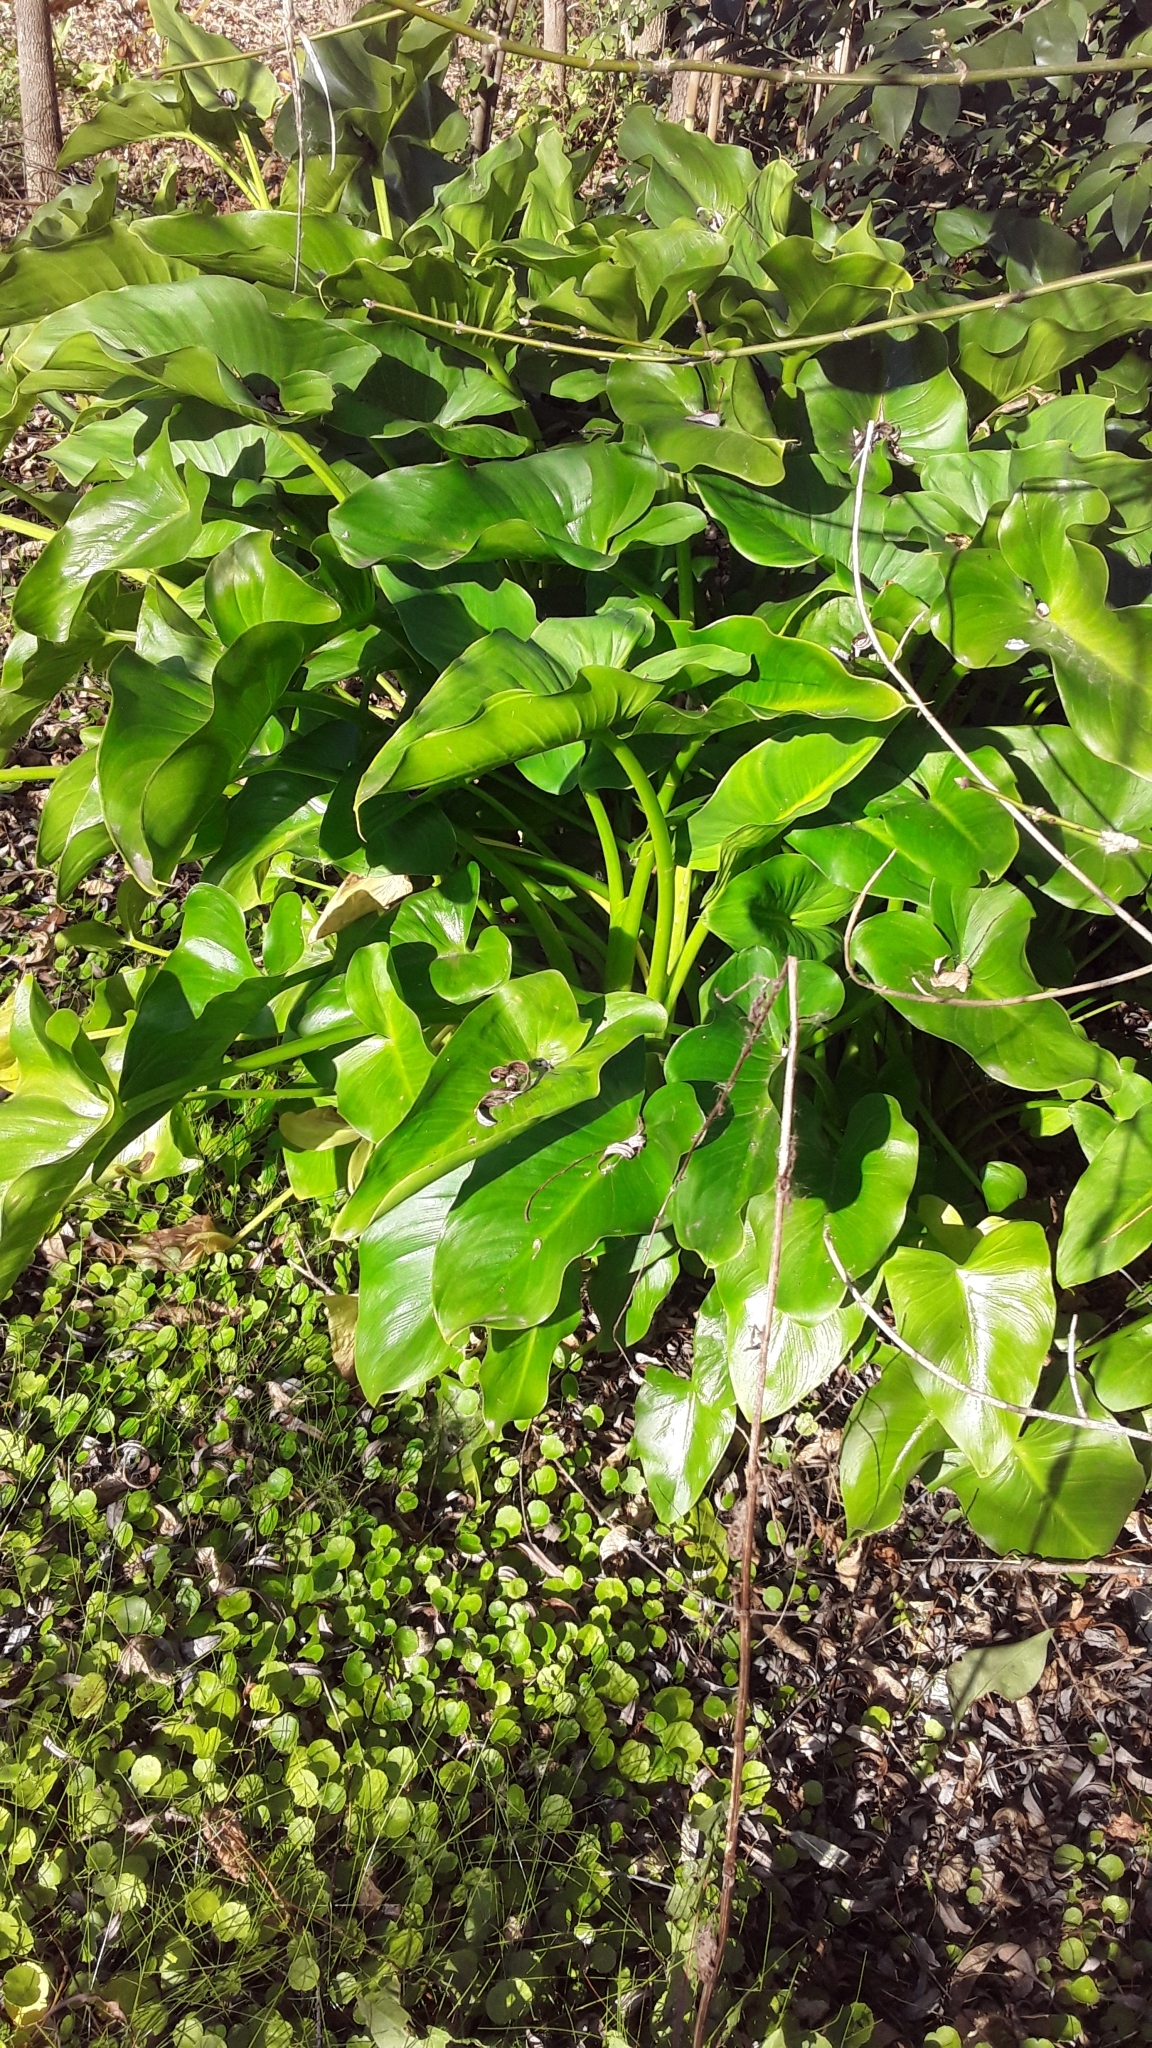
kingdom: Plantae
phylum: Tracheophyta
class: Liliopsida
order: Alismatales
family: Araceae
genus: Zantedeschia
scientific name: Zantedeschia aethiopica
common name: Altar-lily
